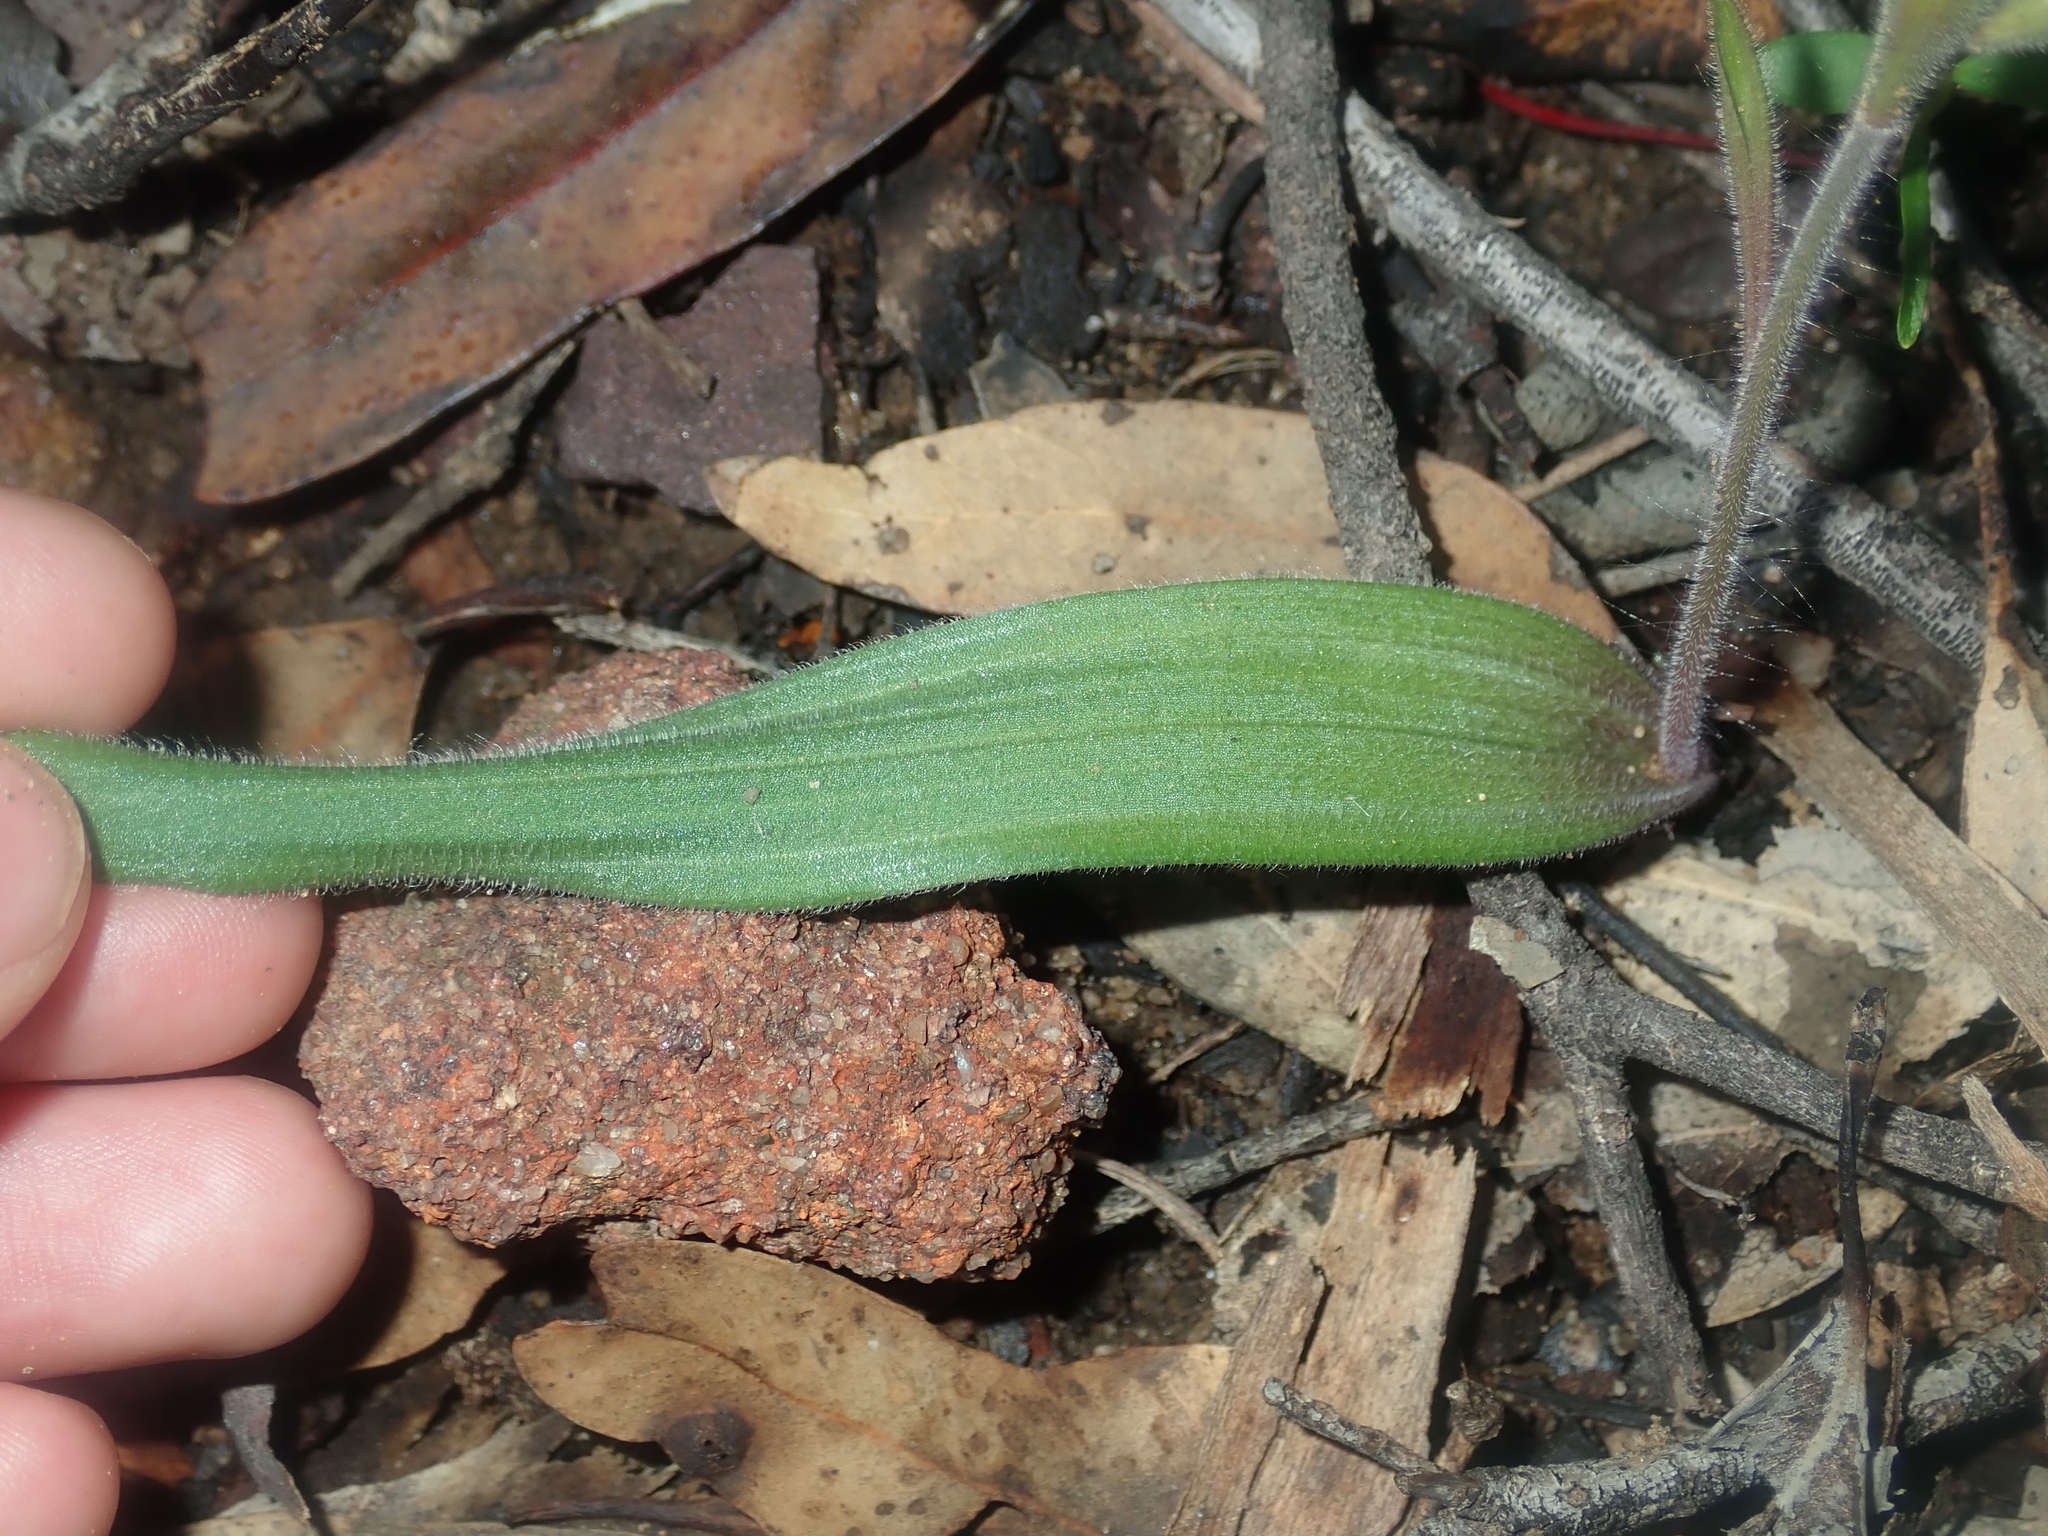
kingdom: Plantae
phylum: Tracheophyta
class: Liliopsida
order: Asparagales
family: Orchidaceae
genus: Caladenia
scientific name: Caladenia flava
